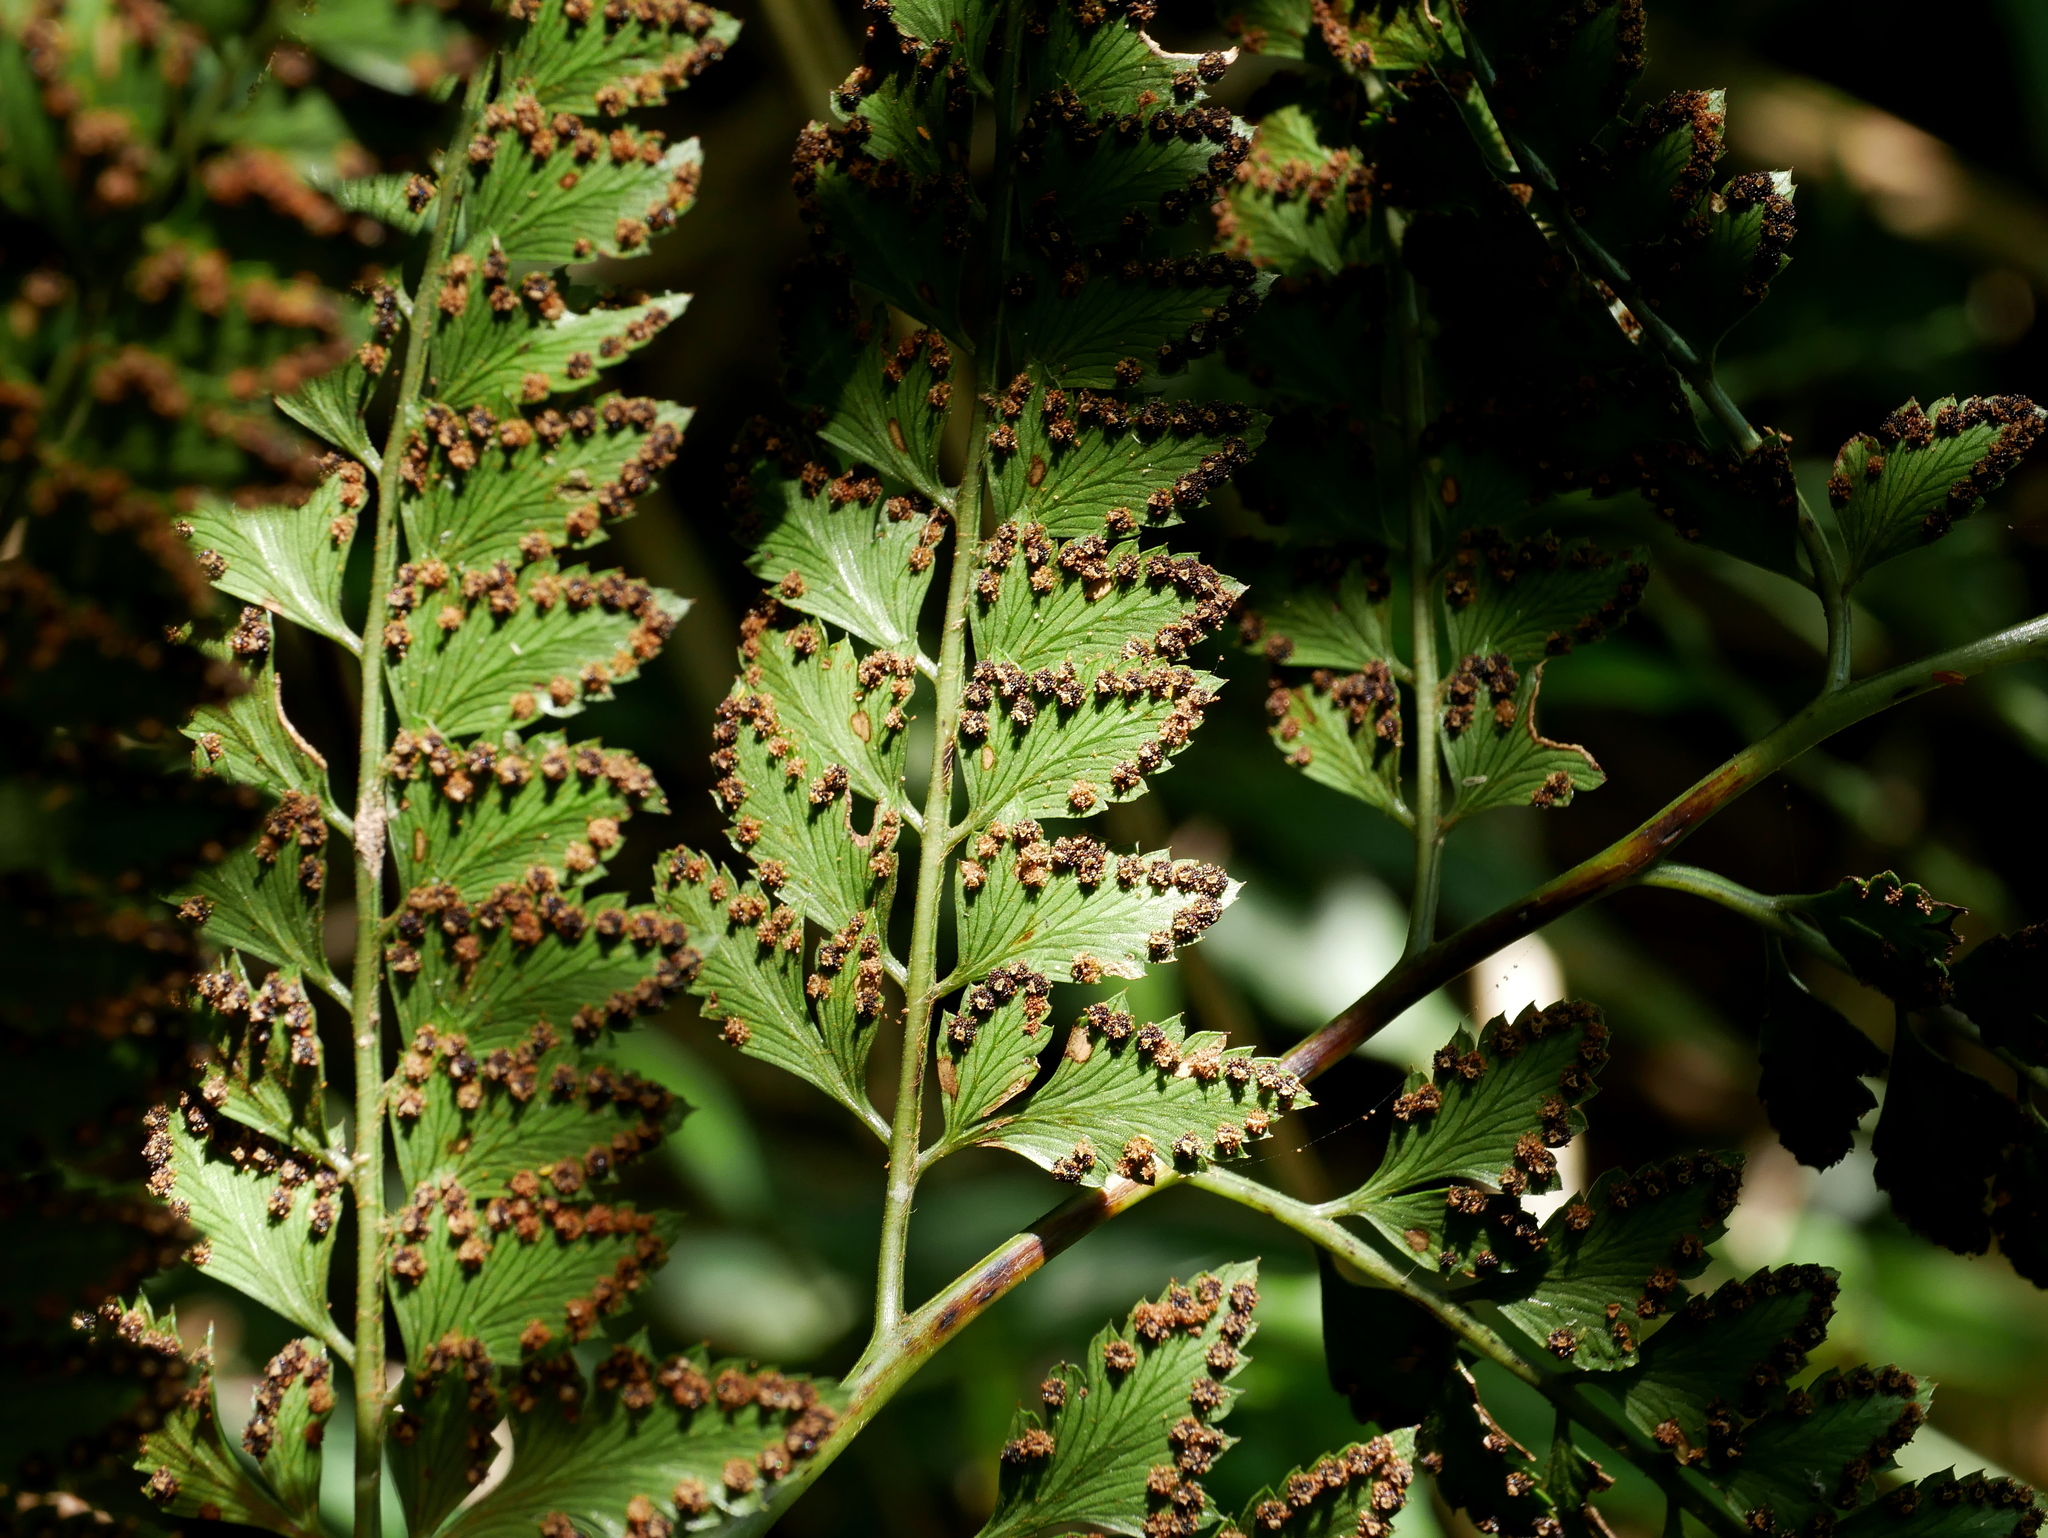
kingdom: Plantae
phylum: Tracheophyta
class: Polypodiopsida
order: Polypodiales
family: Dryopteridaceae
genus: Arachniodes
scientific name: Arachniodes rhomboidea
